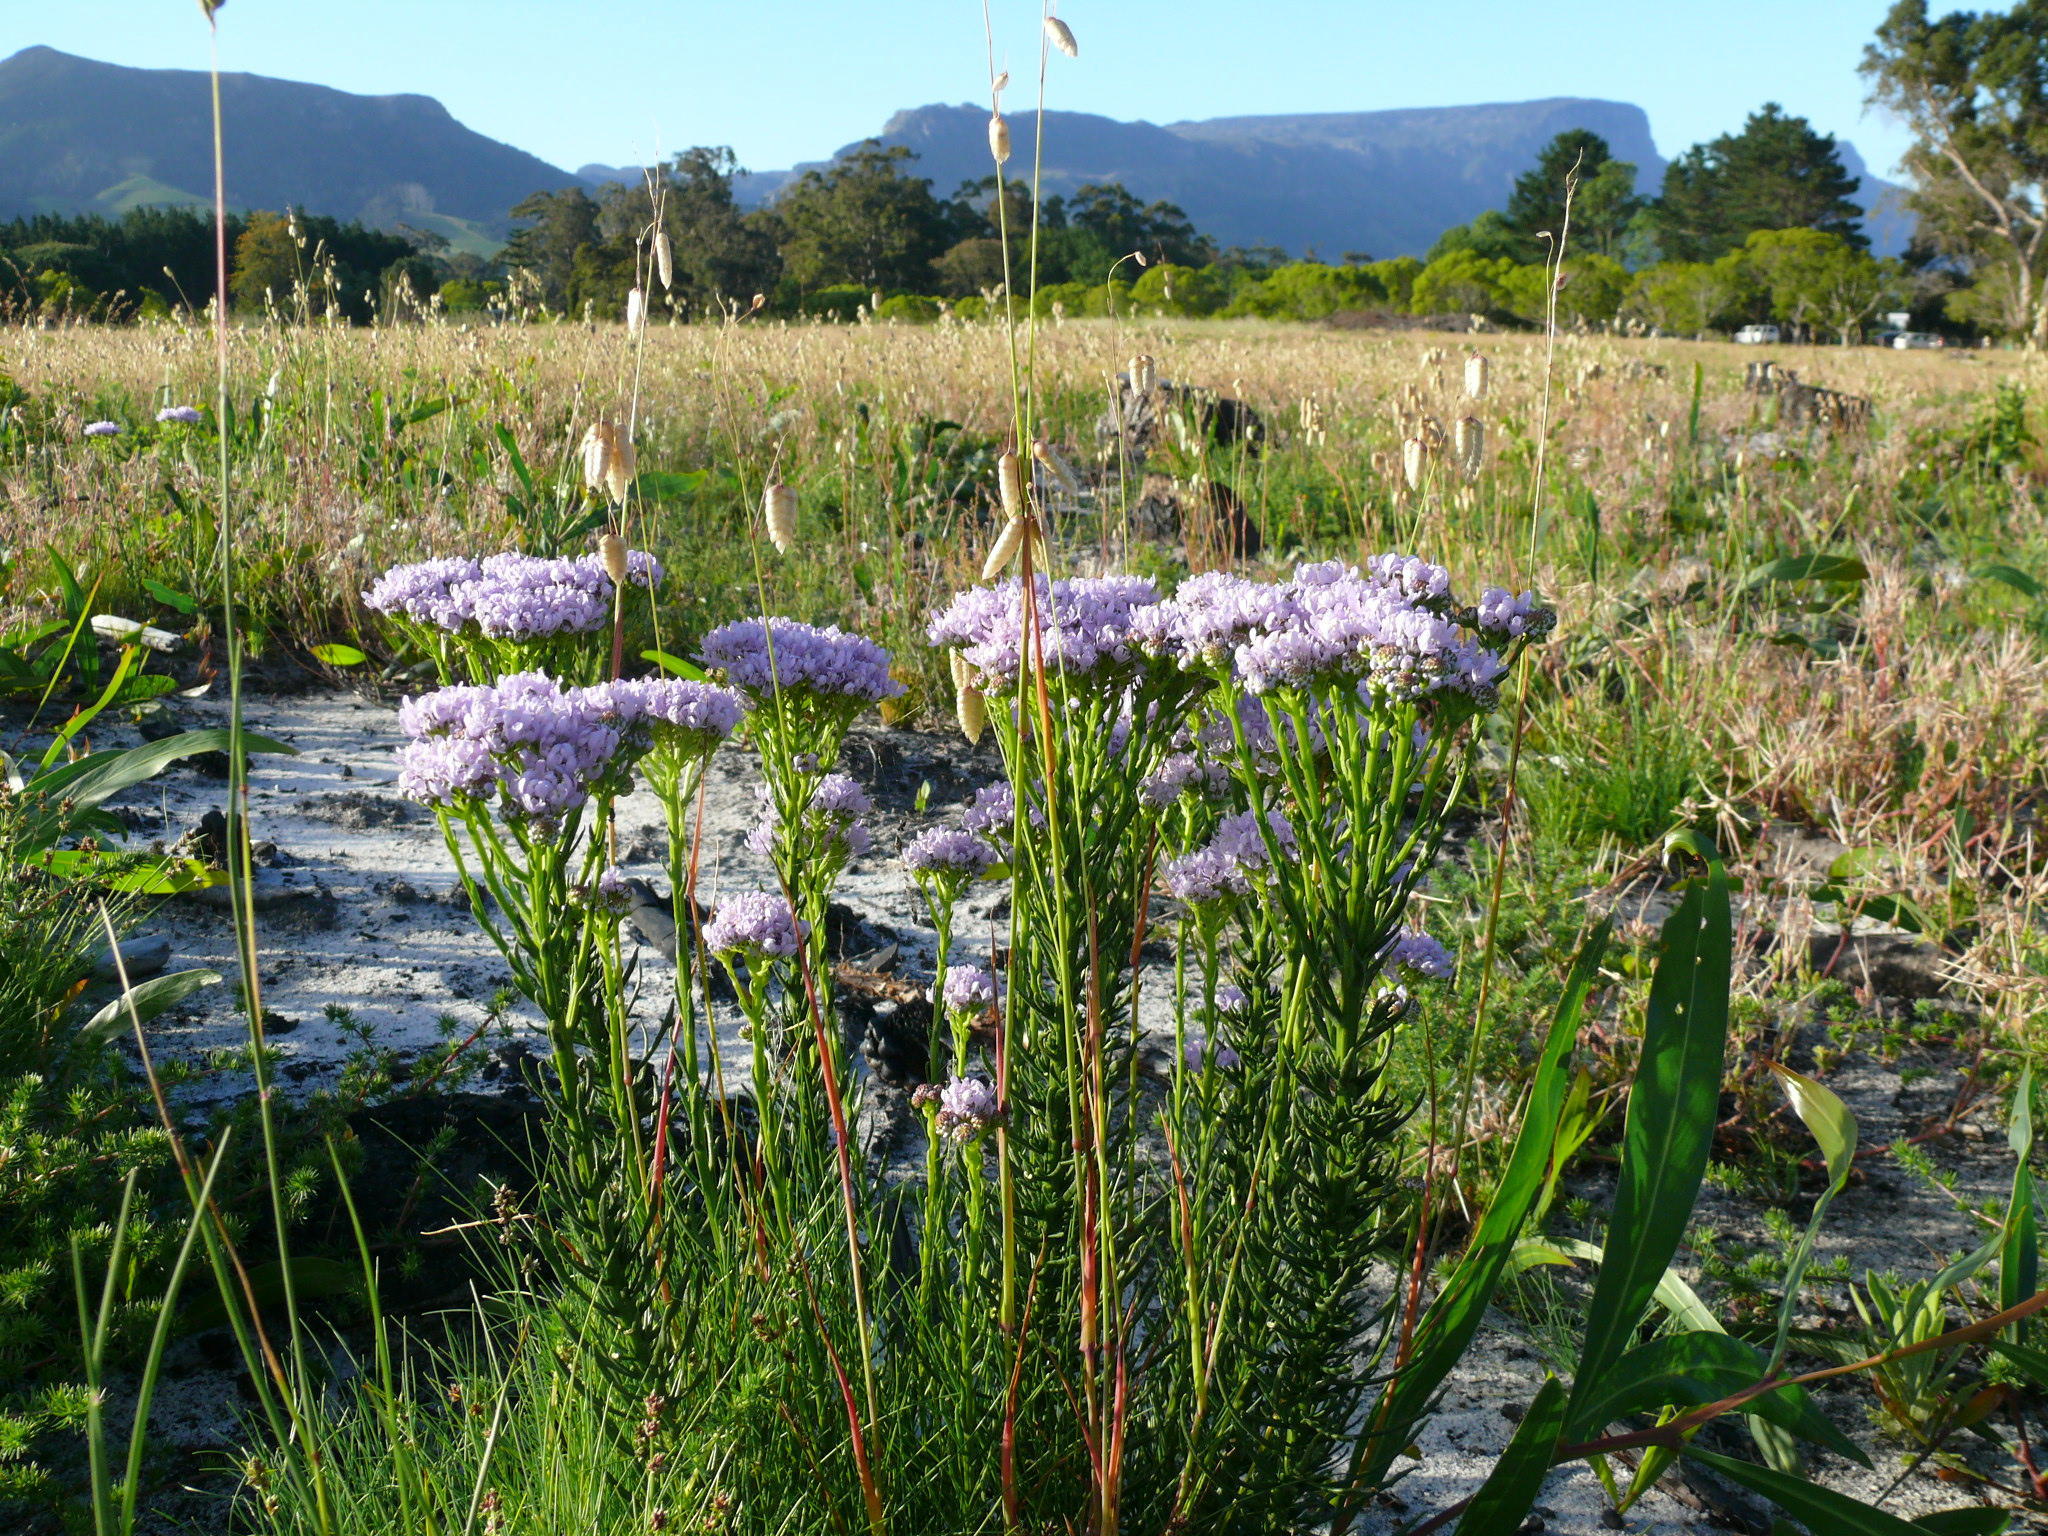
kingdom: Plantae
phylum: Tracheophyta
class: Magnoliopsida
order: Lamiales
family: Scrophulariaceae
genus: Pseudoselago
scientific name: Pseudoselago spuria
